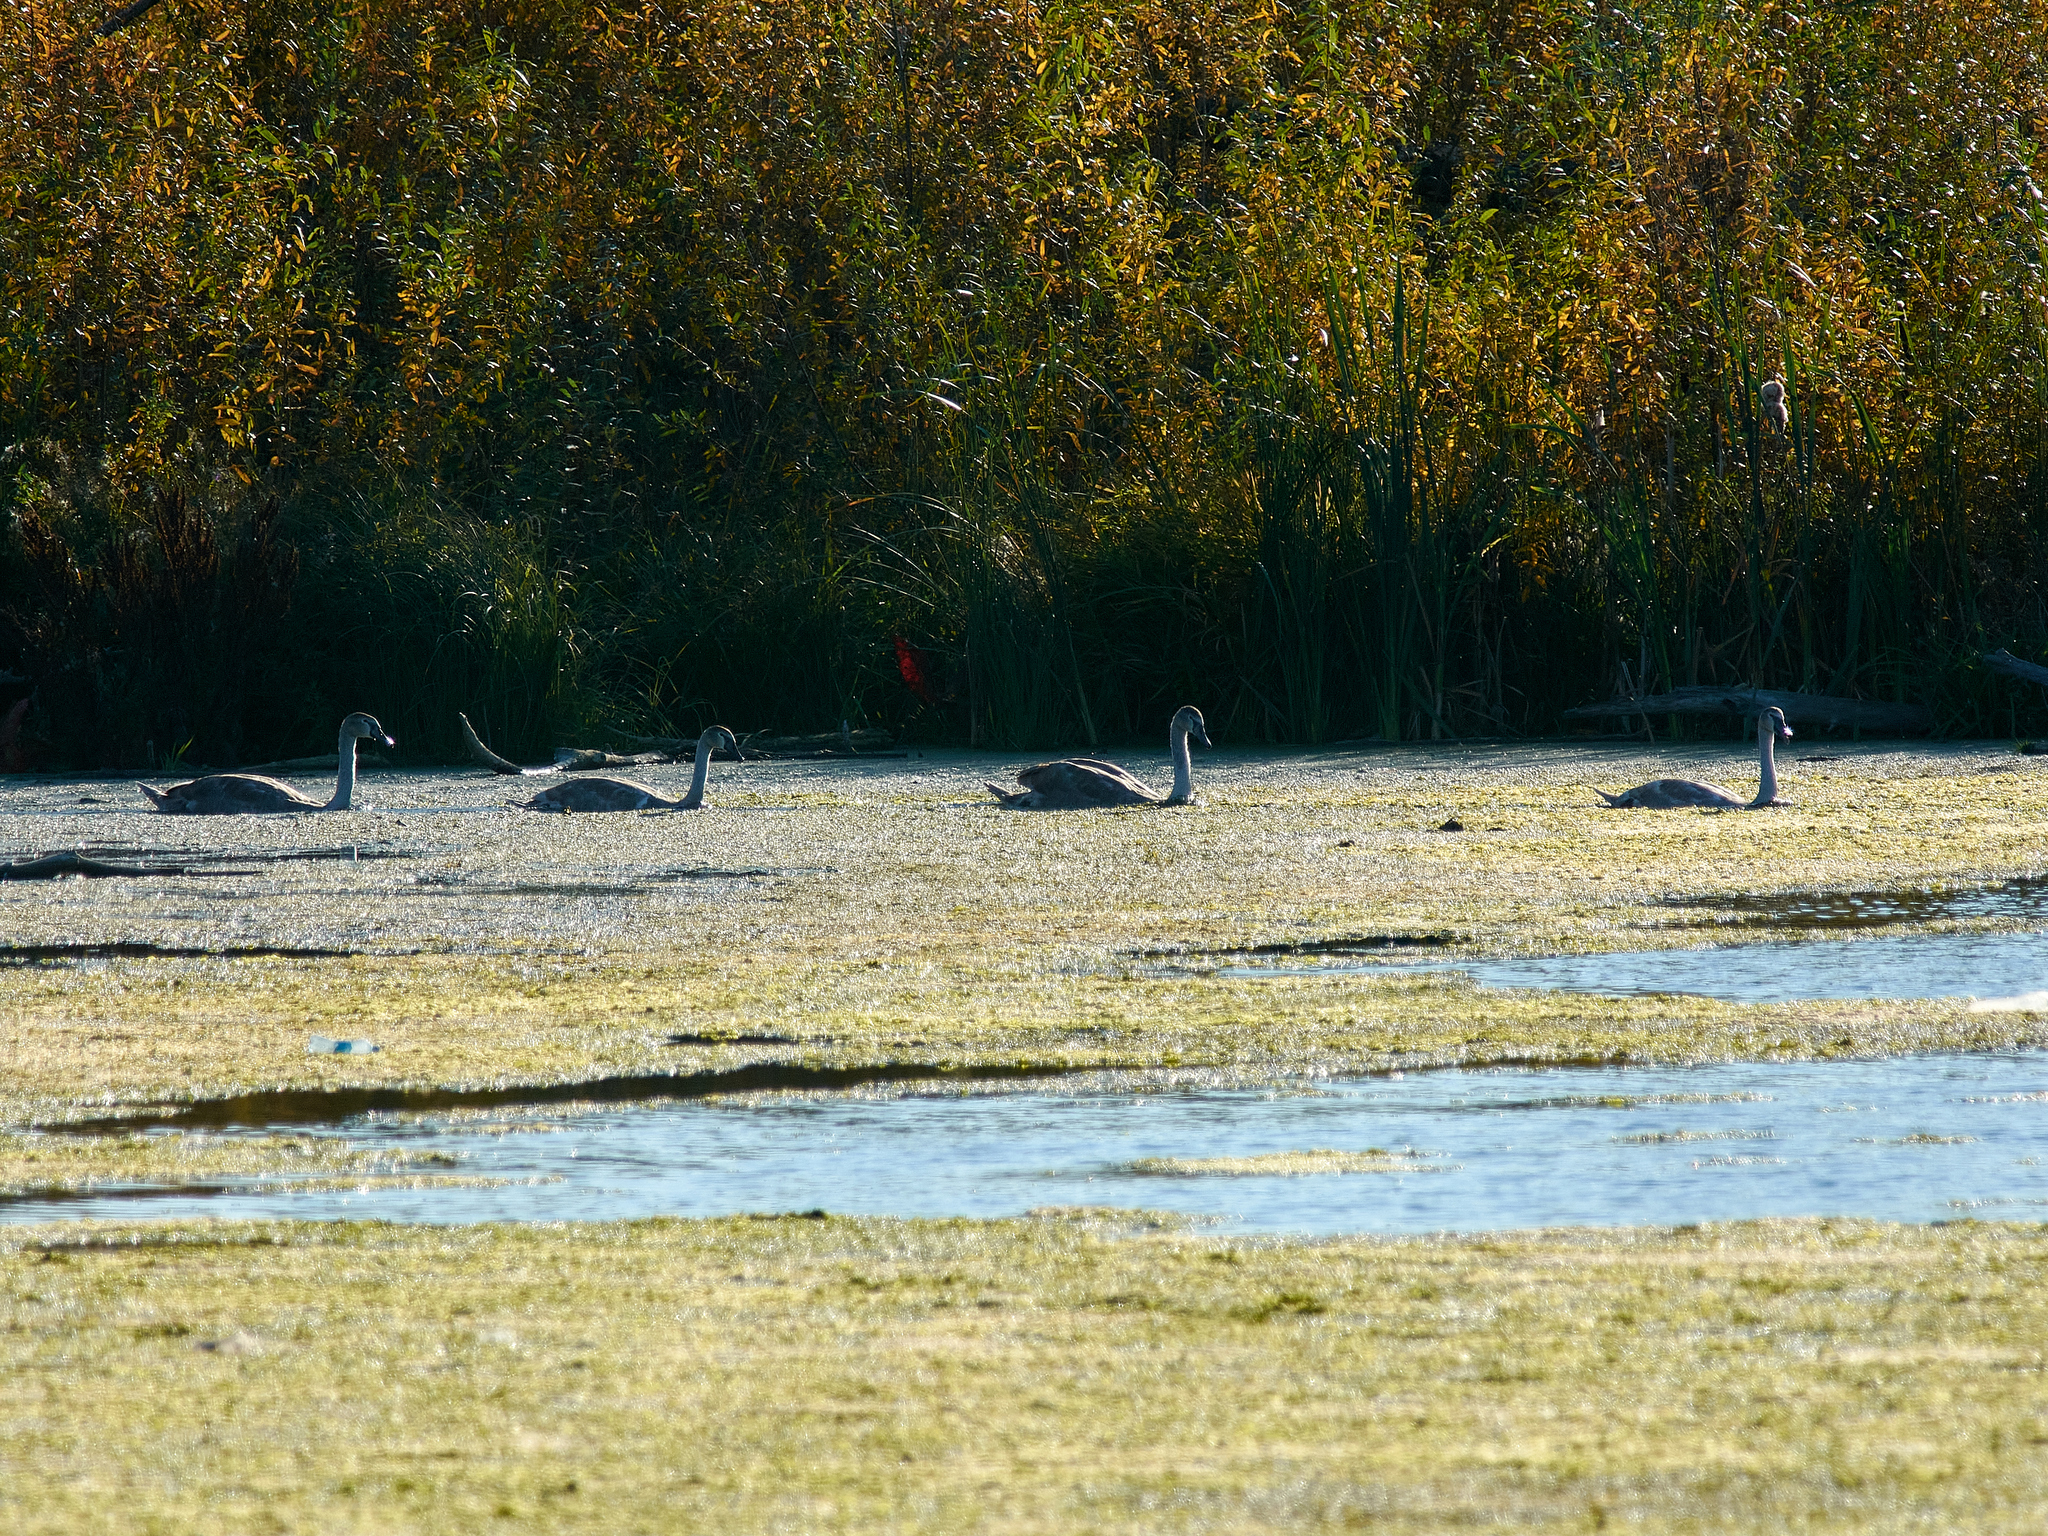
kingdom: Animalia
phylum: Chordata
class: Aves
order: Anseriformes
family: Anatidae
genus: Cygnus
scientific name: Cygnus olor
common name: Mute swan
